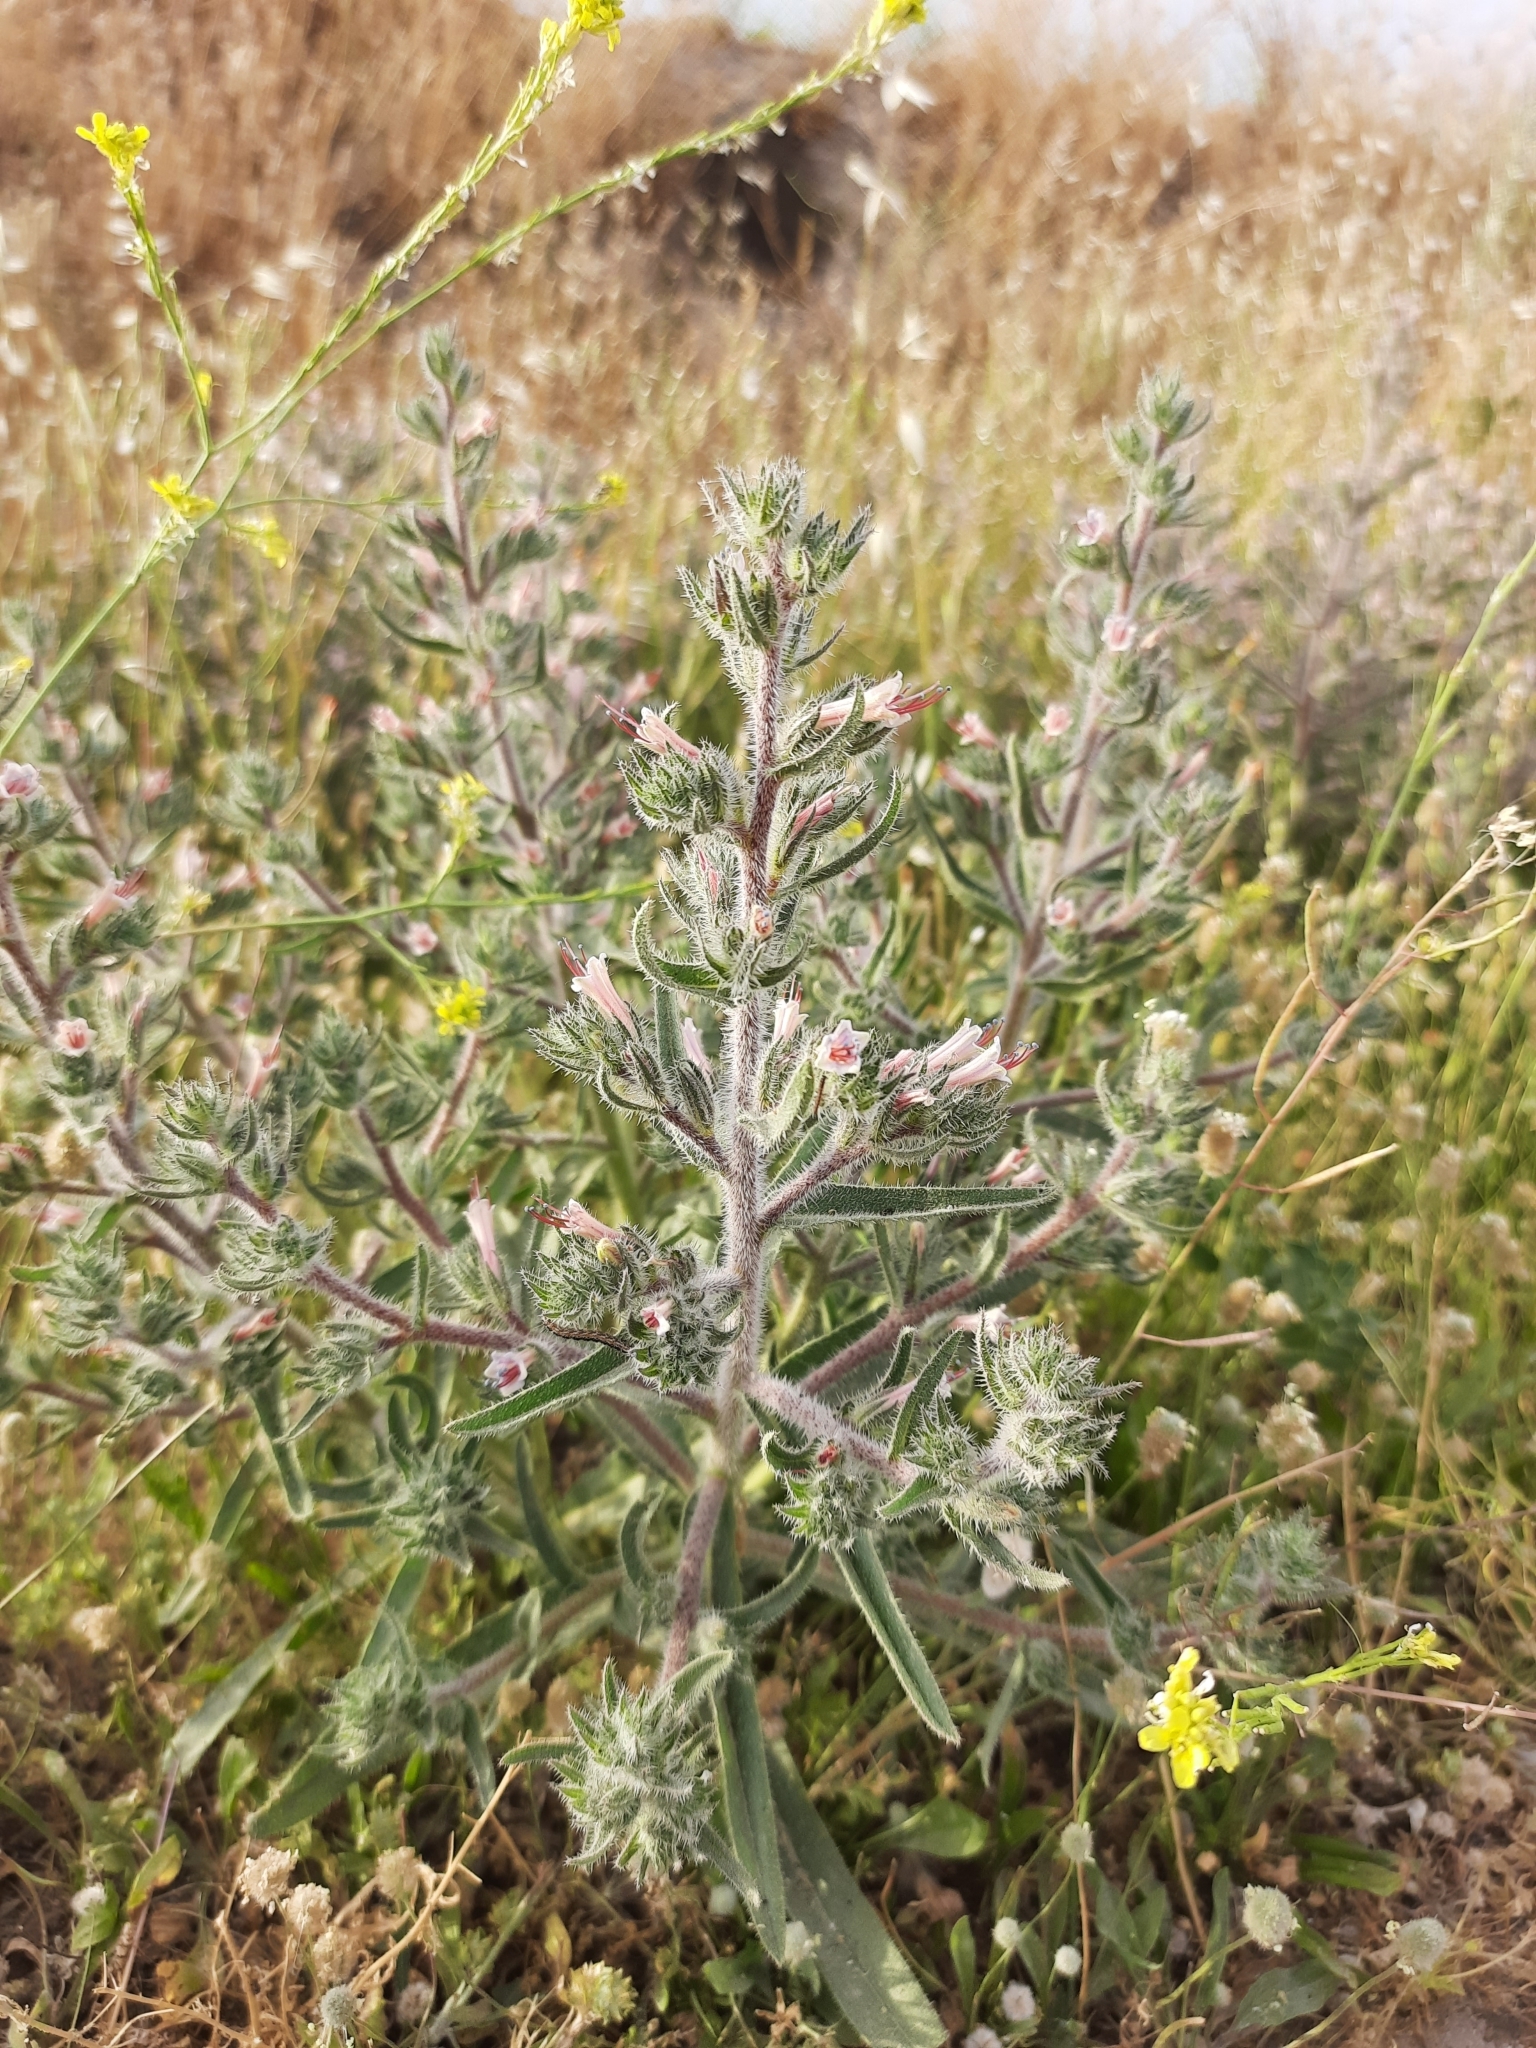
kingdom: Plantae
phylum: Tracheophyta
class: Magnoliopsida
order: Boraginales
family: Boraginaceae
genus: Echium
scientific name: Echium asperrimum
